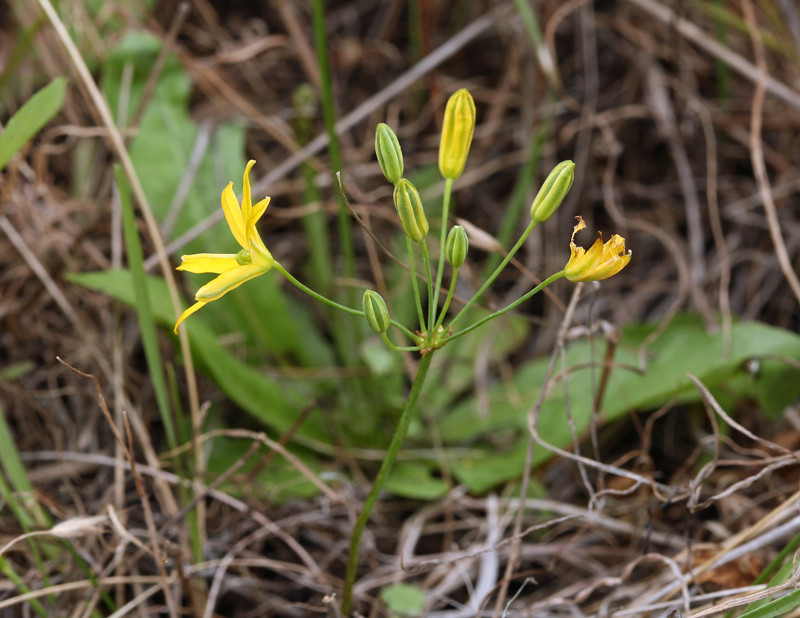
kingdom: Plantae
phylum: Tracheophyta
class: Liliopsida
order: Asparagales
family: Asparagaceae
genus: Bloomeria
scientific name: Bloomeria crocea
